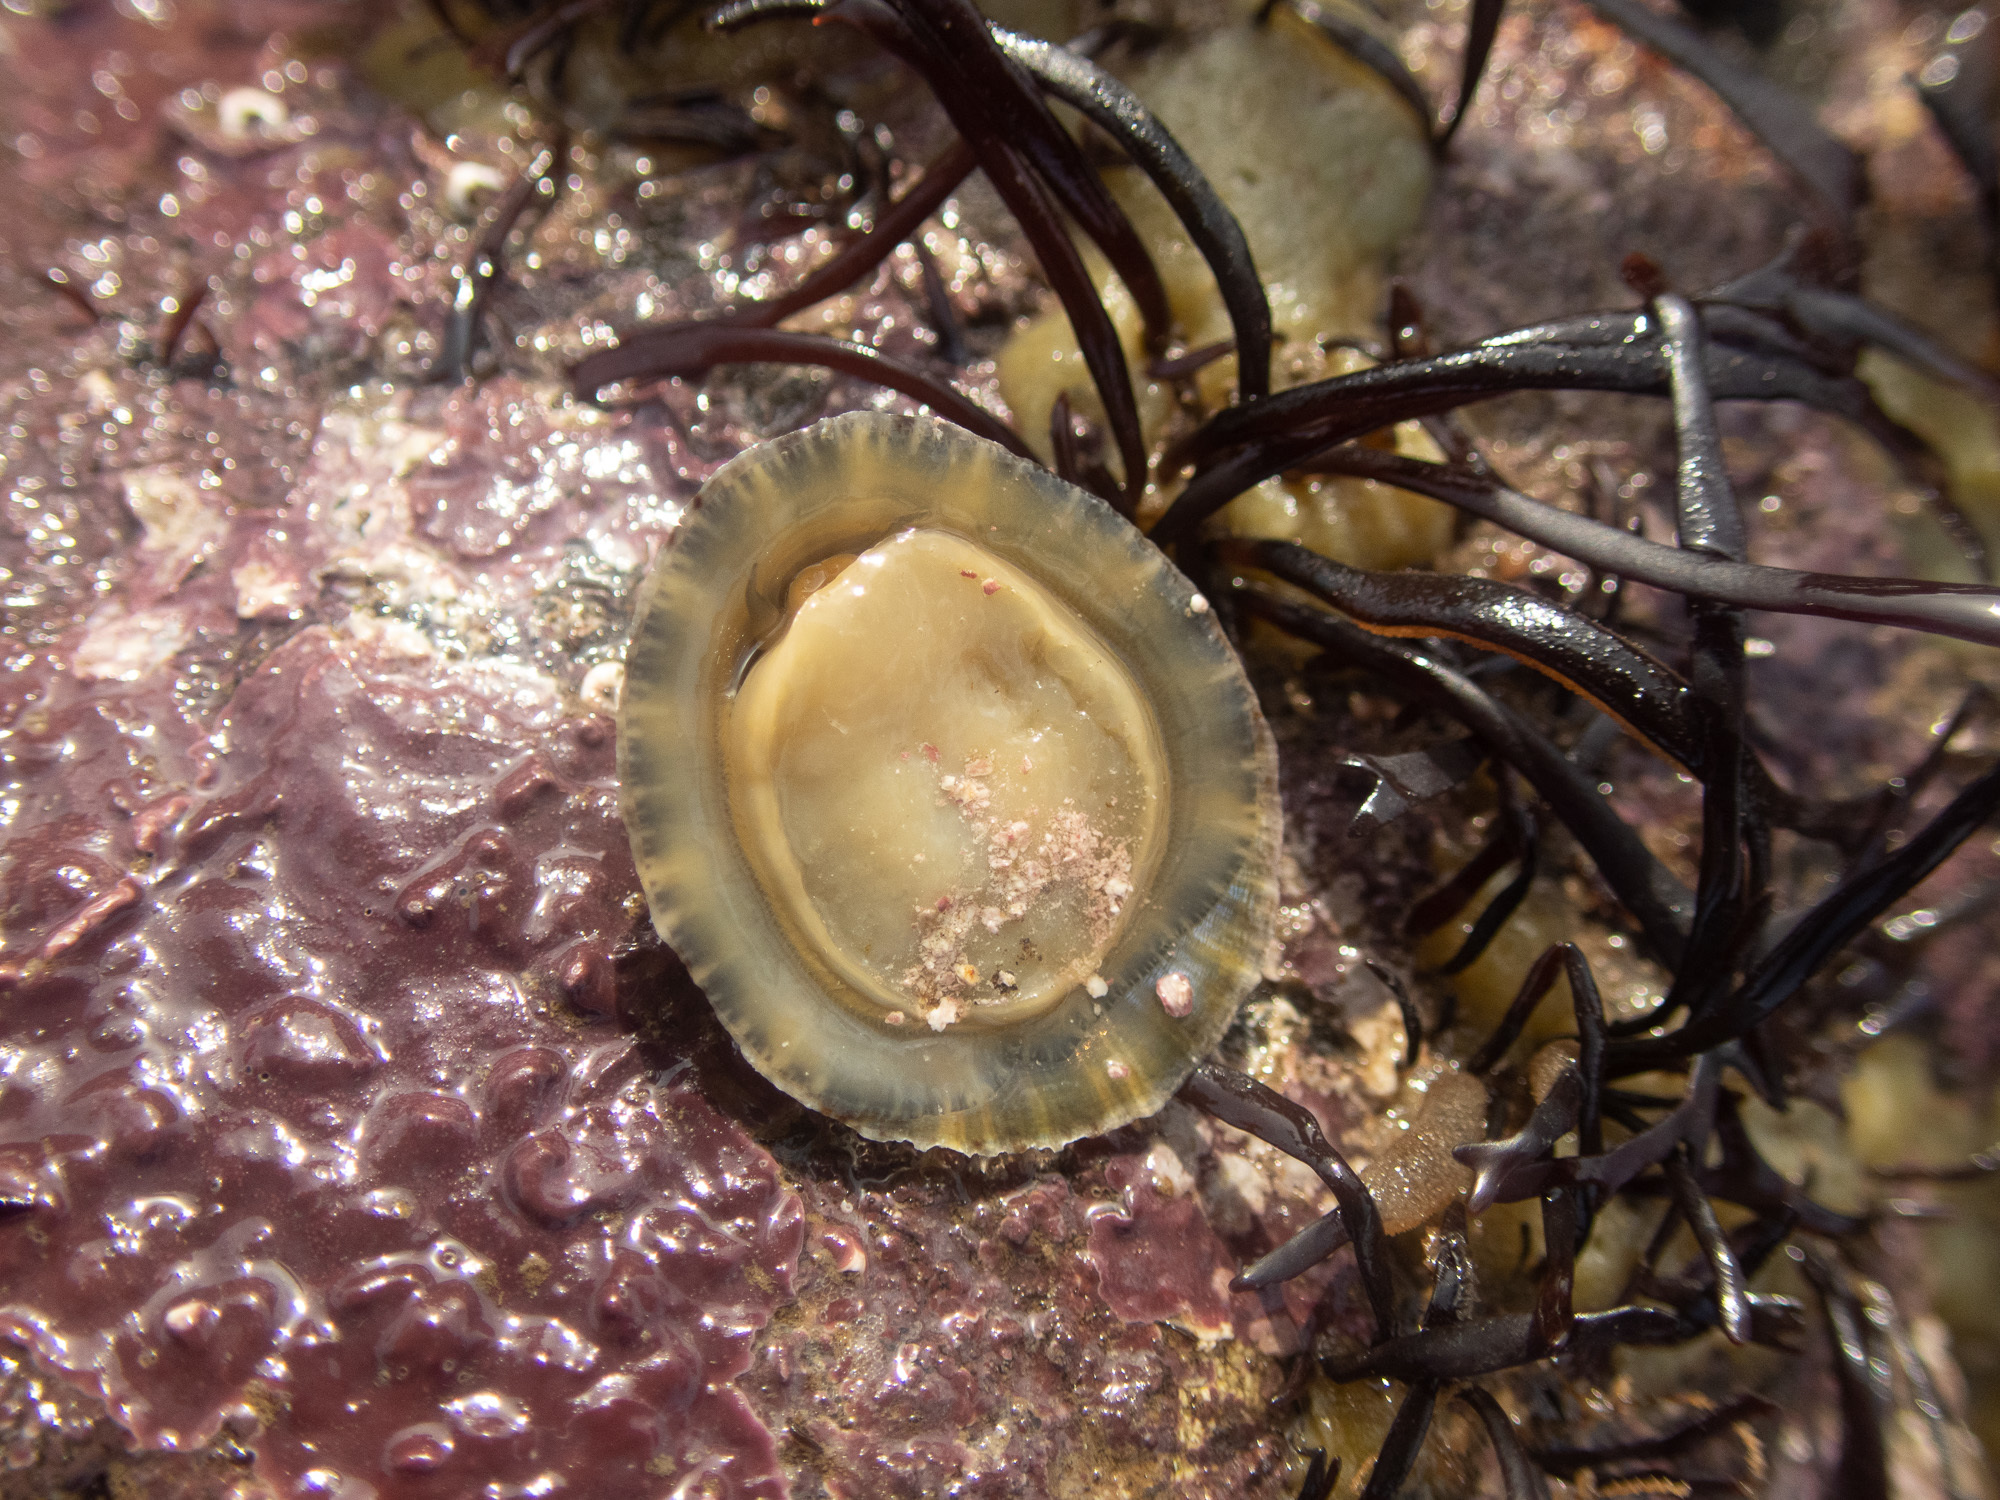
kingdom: Animalia
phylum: Mollusca
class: Gastropoda
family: Patellidae
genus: Patella
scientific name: Patella vulgata
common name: Common limpet
